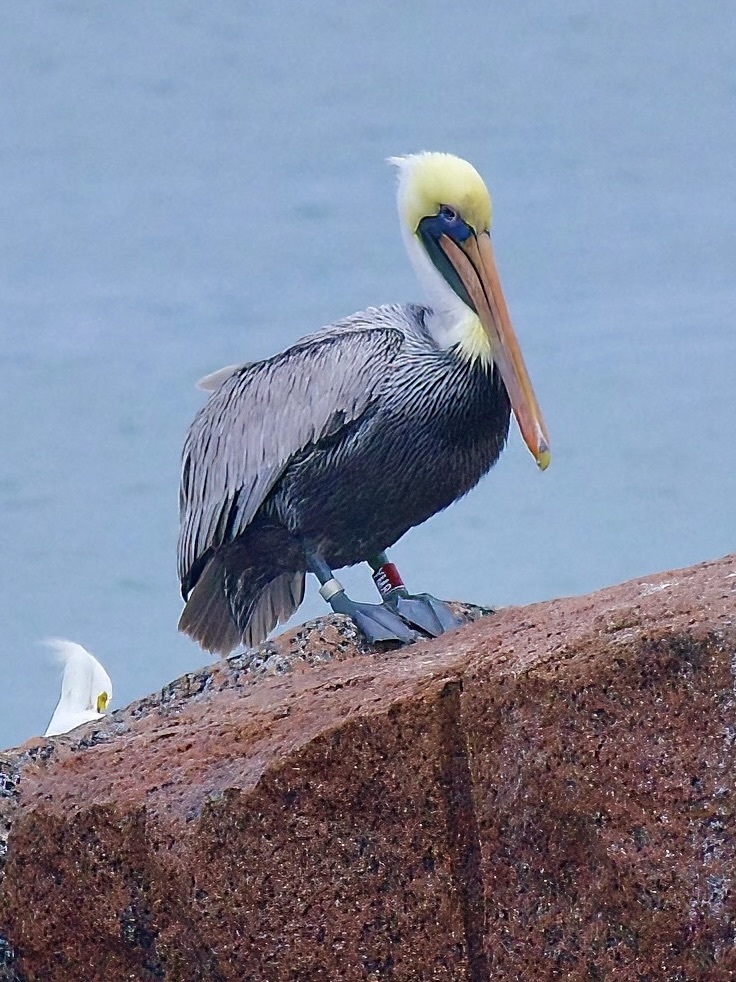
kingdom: Animalia
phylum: Chordata
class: Aves
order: Pelecaniformes
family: Pelecanidae
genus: Pelecanus
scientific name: Pelecanus occidentalis
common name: Brown pelican
